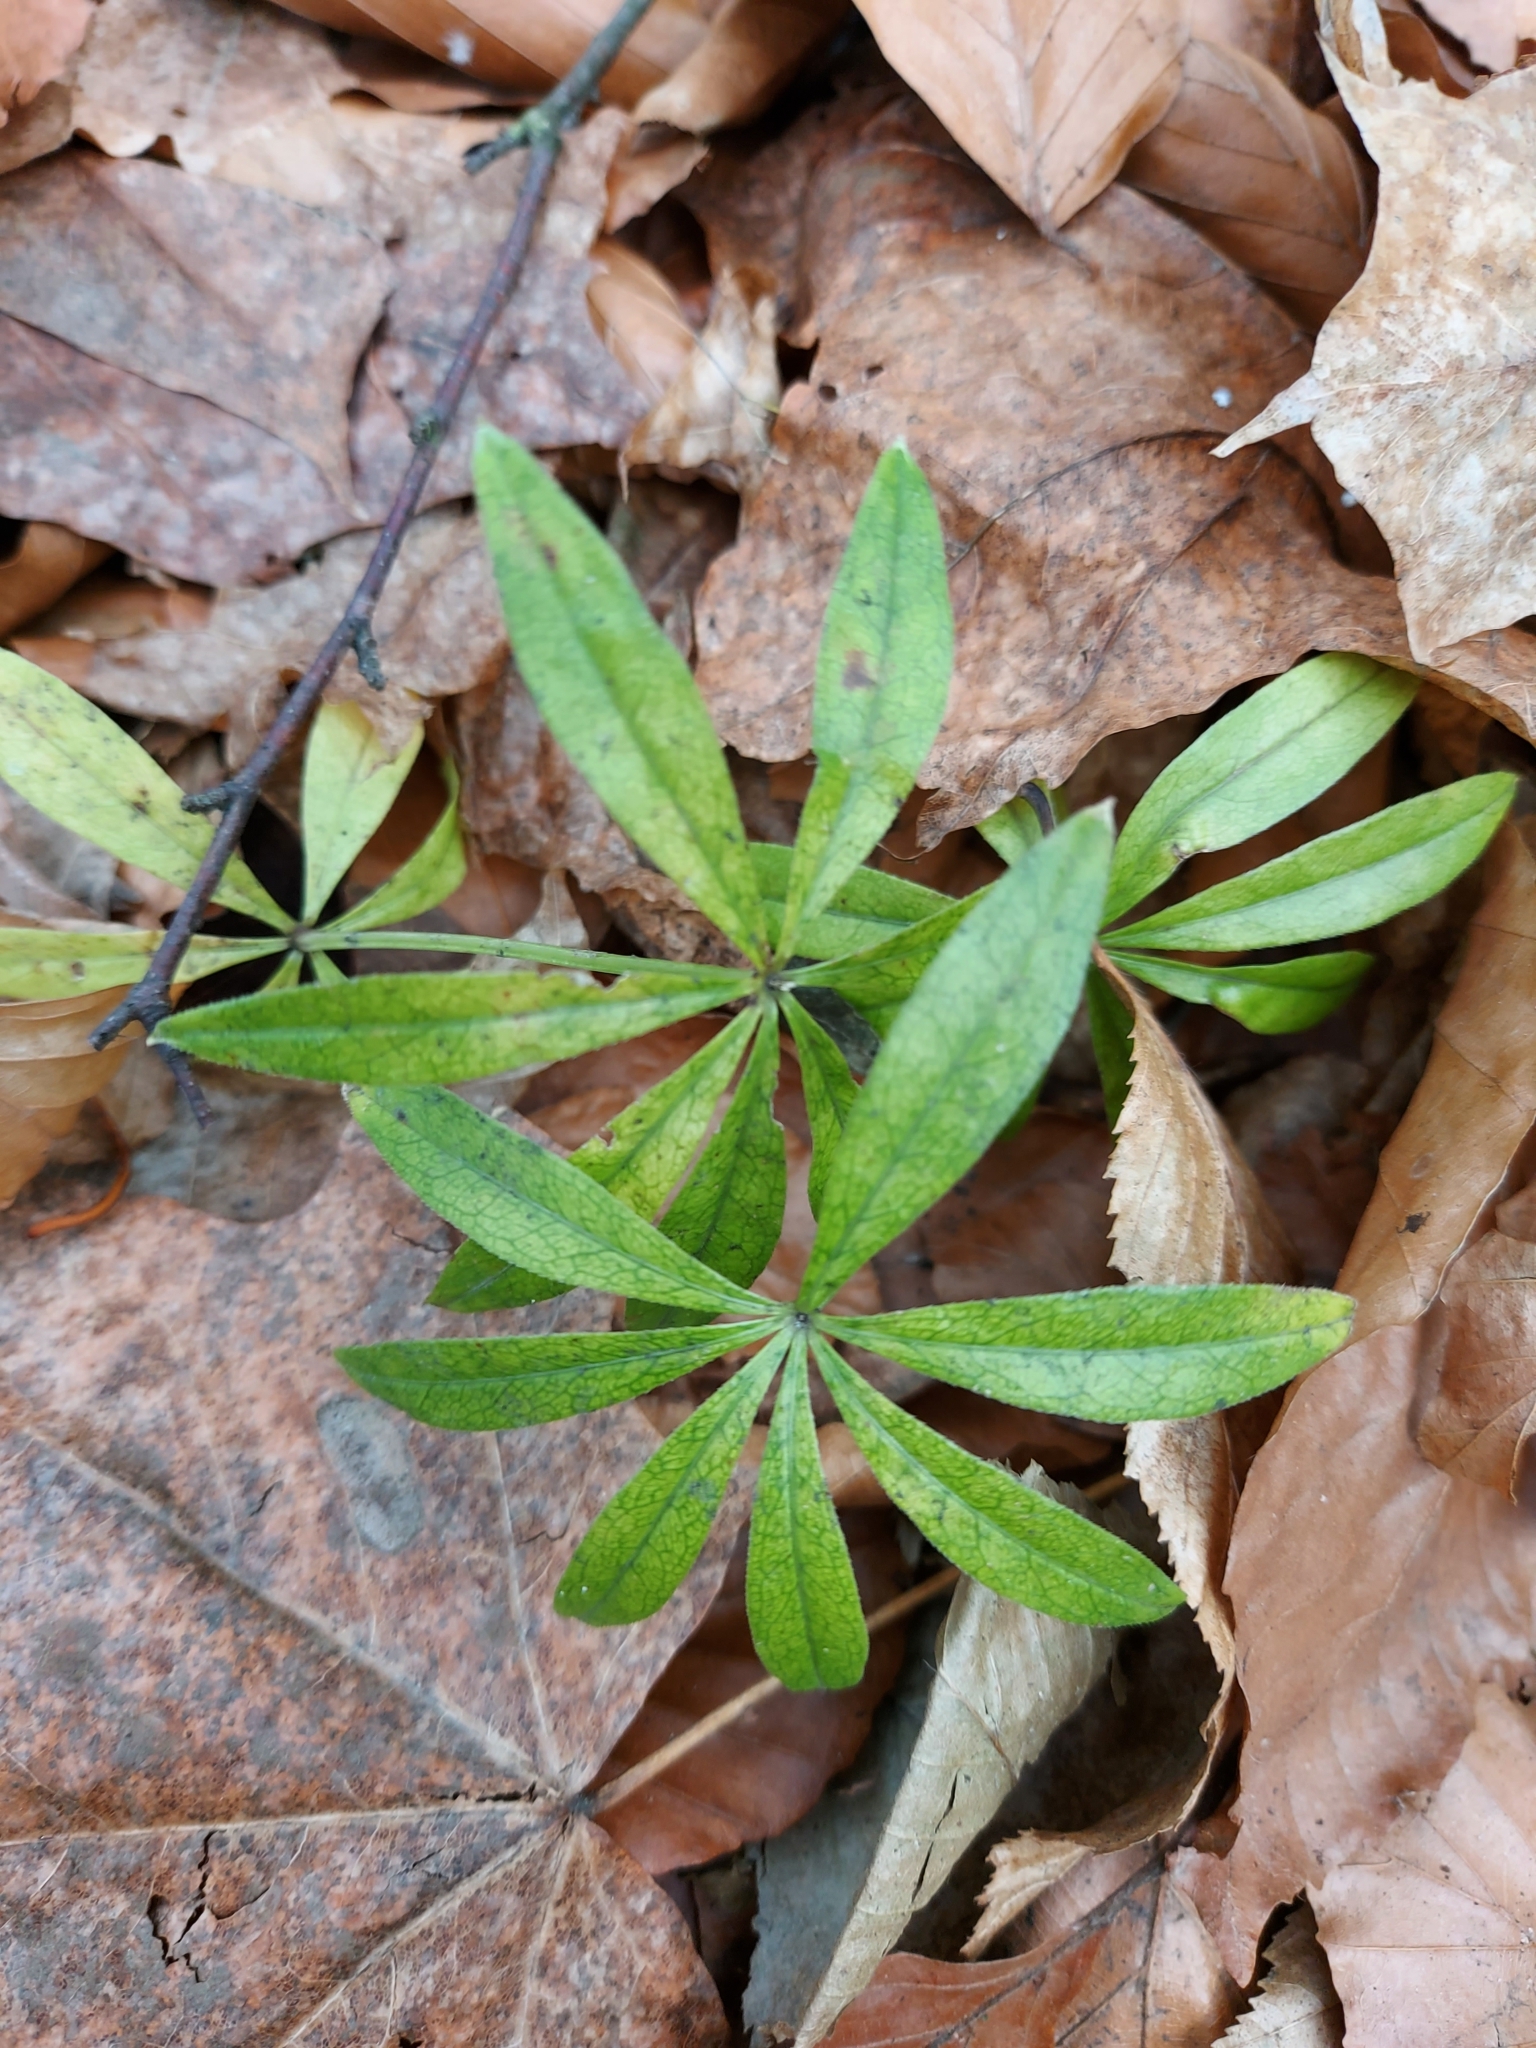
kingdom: Plantae
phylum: Tracheophyta
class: Magnoliopsida
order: Gentianales
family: Rubiaceae
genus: Galium
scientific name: Galium odoratum
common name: Sweet woodruff
